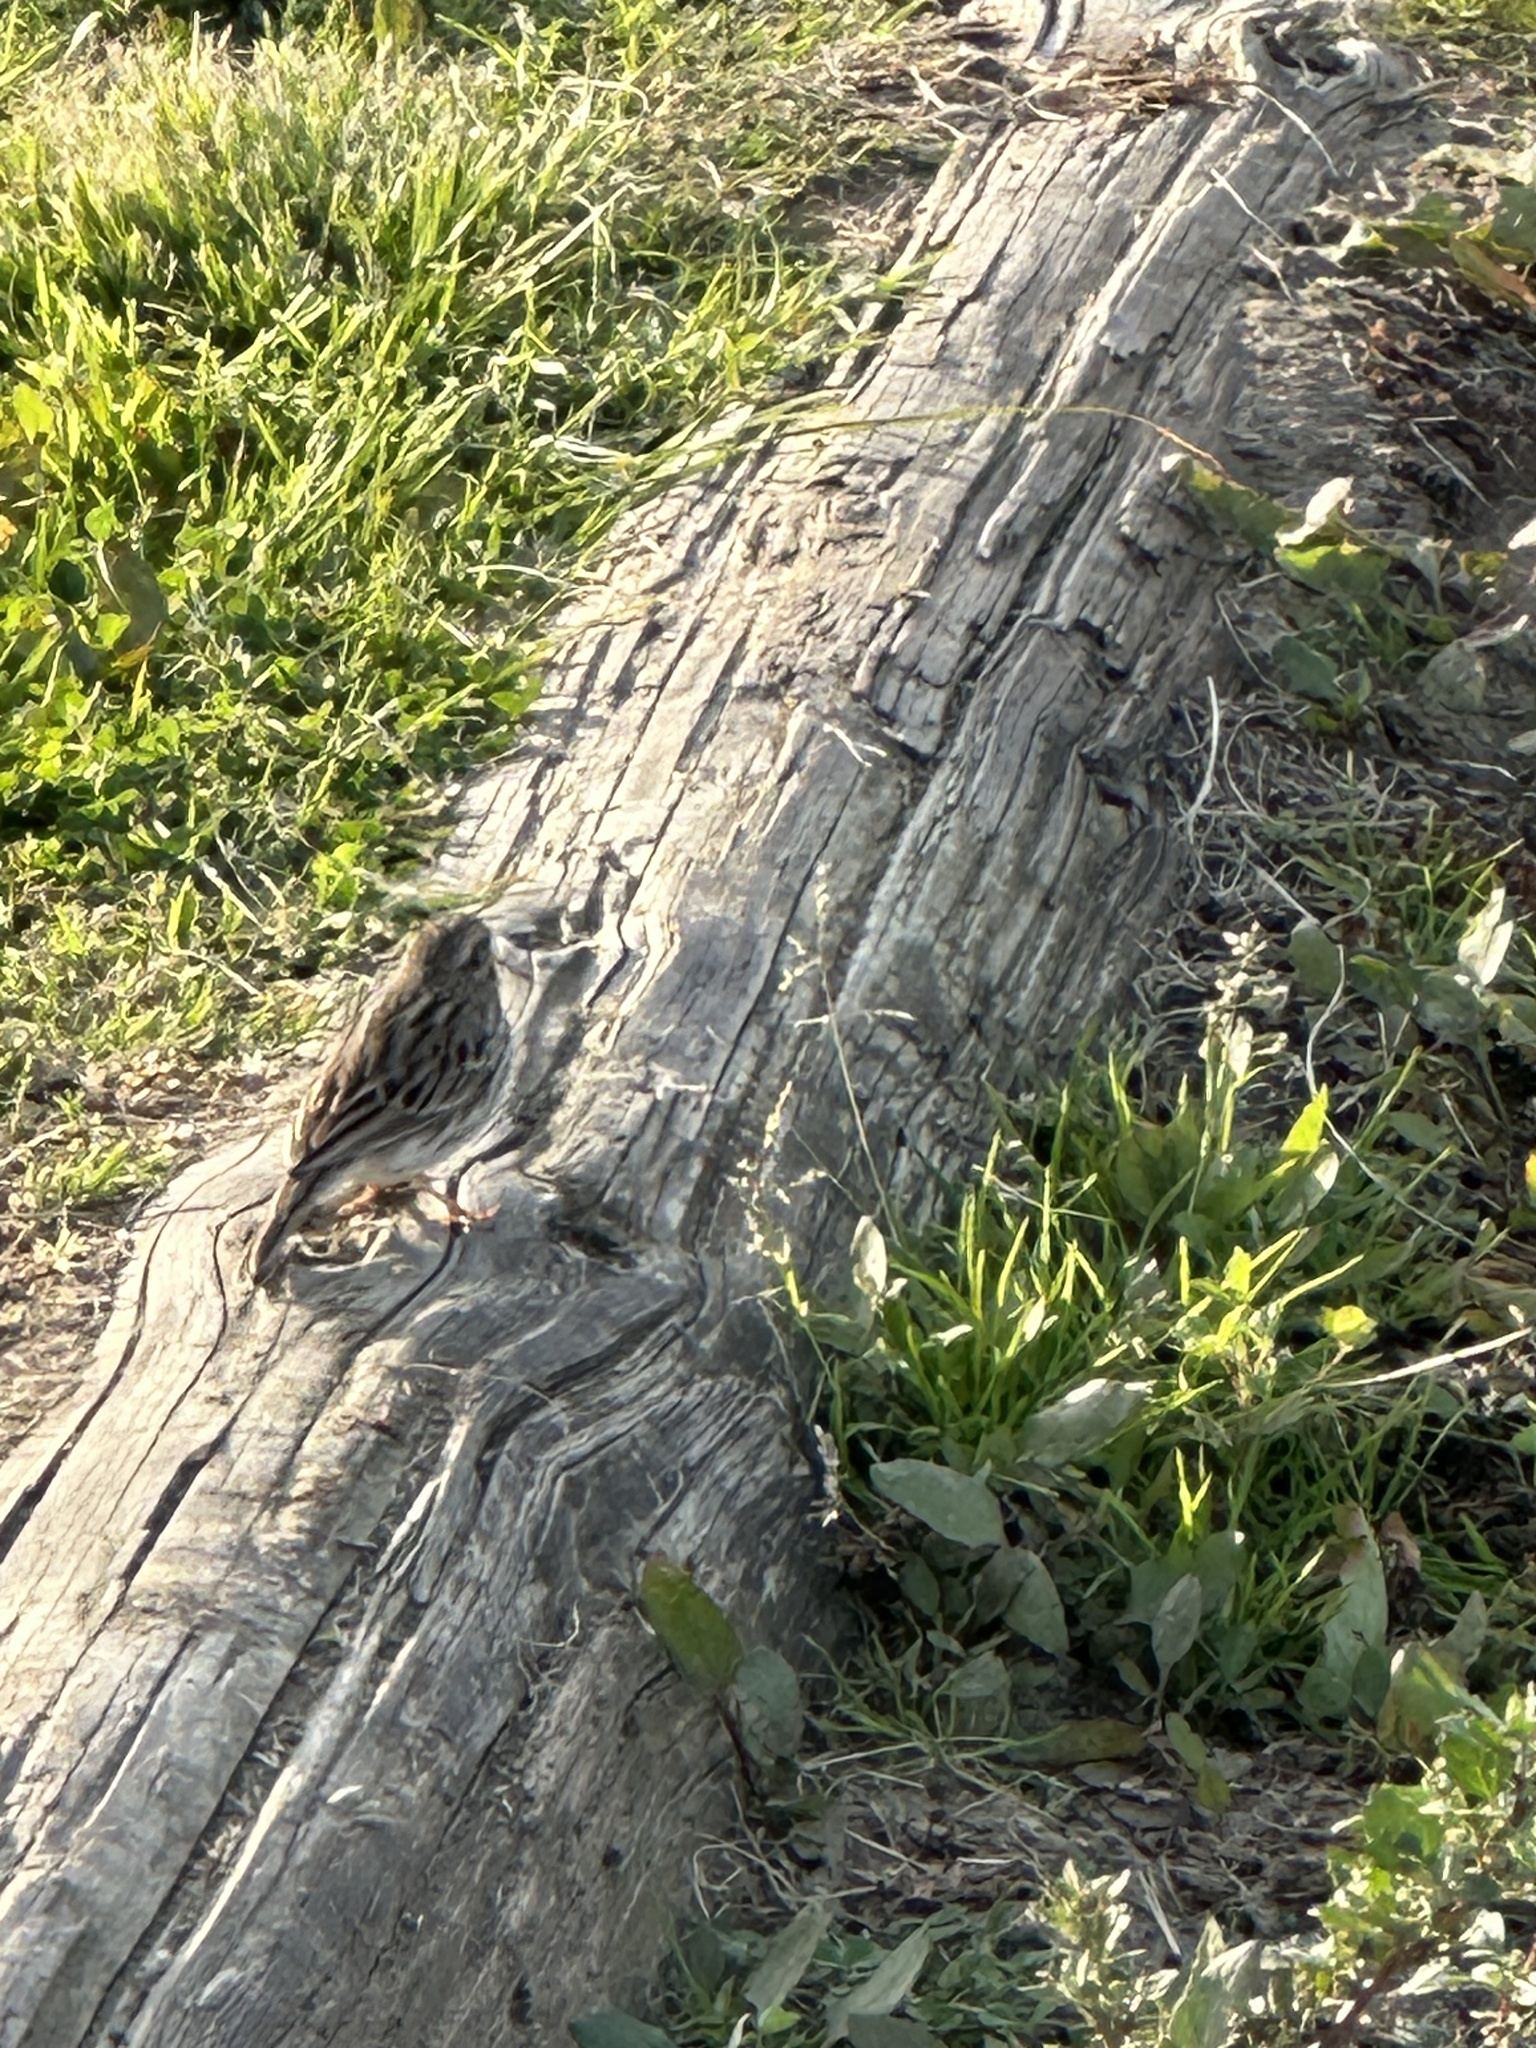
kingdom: Animalia
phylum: Chordata
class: Aves
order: Passeriformes
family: Passerellidae
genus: Passerculus
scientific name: Passerculus sandwichensis
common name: Savannah sparrow
